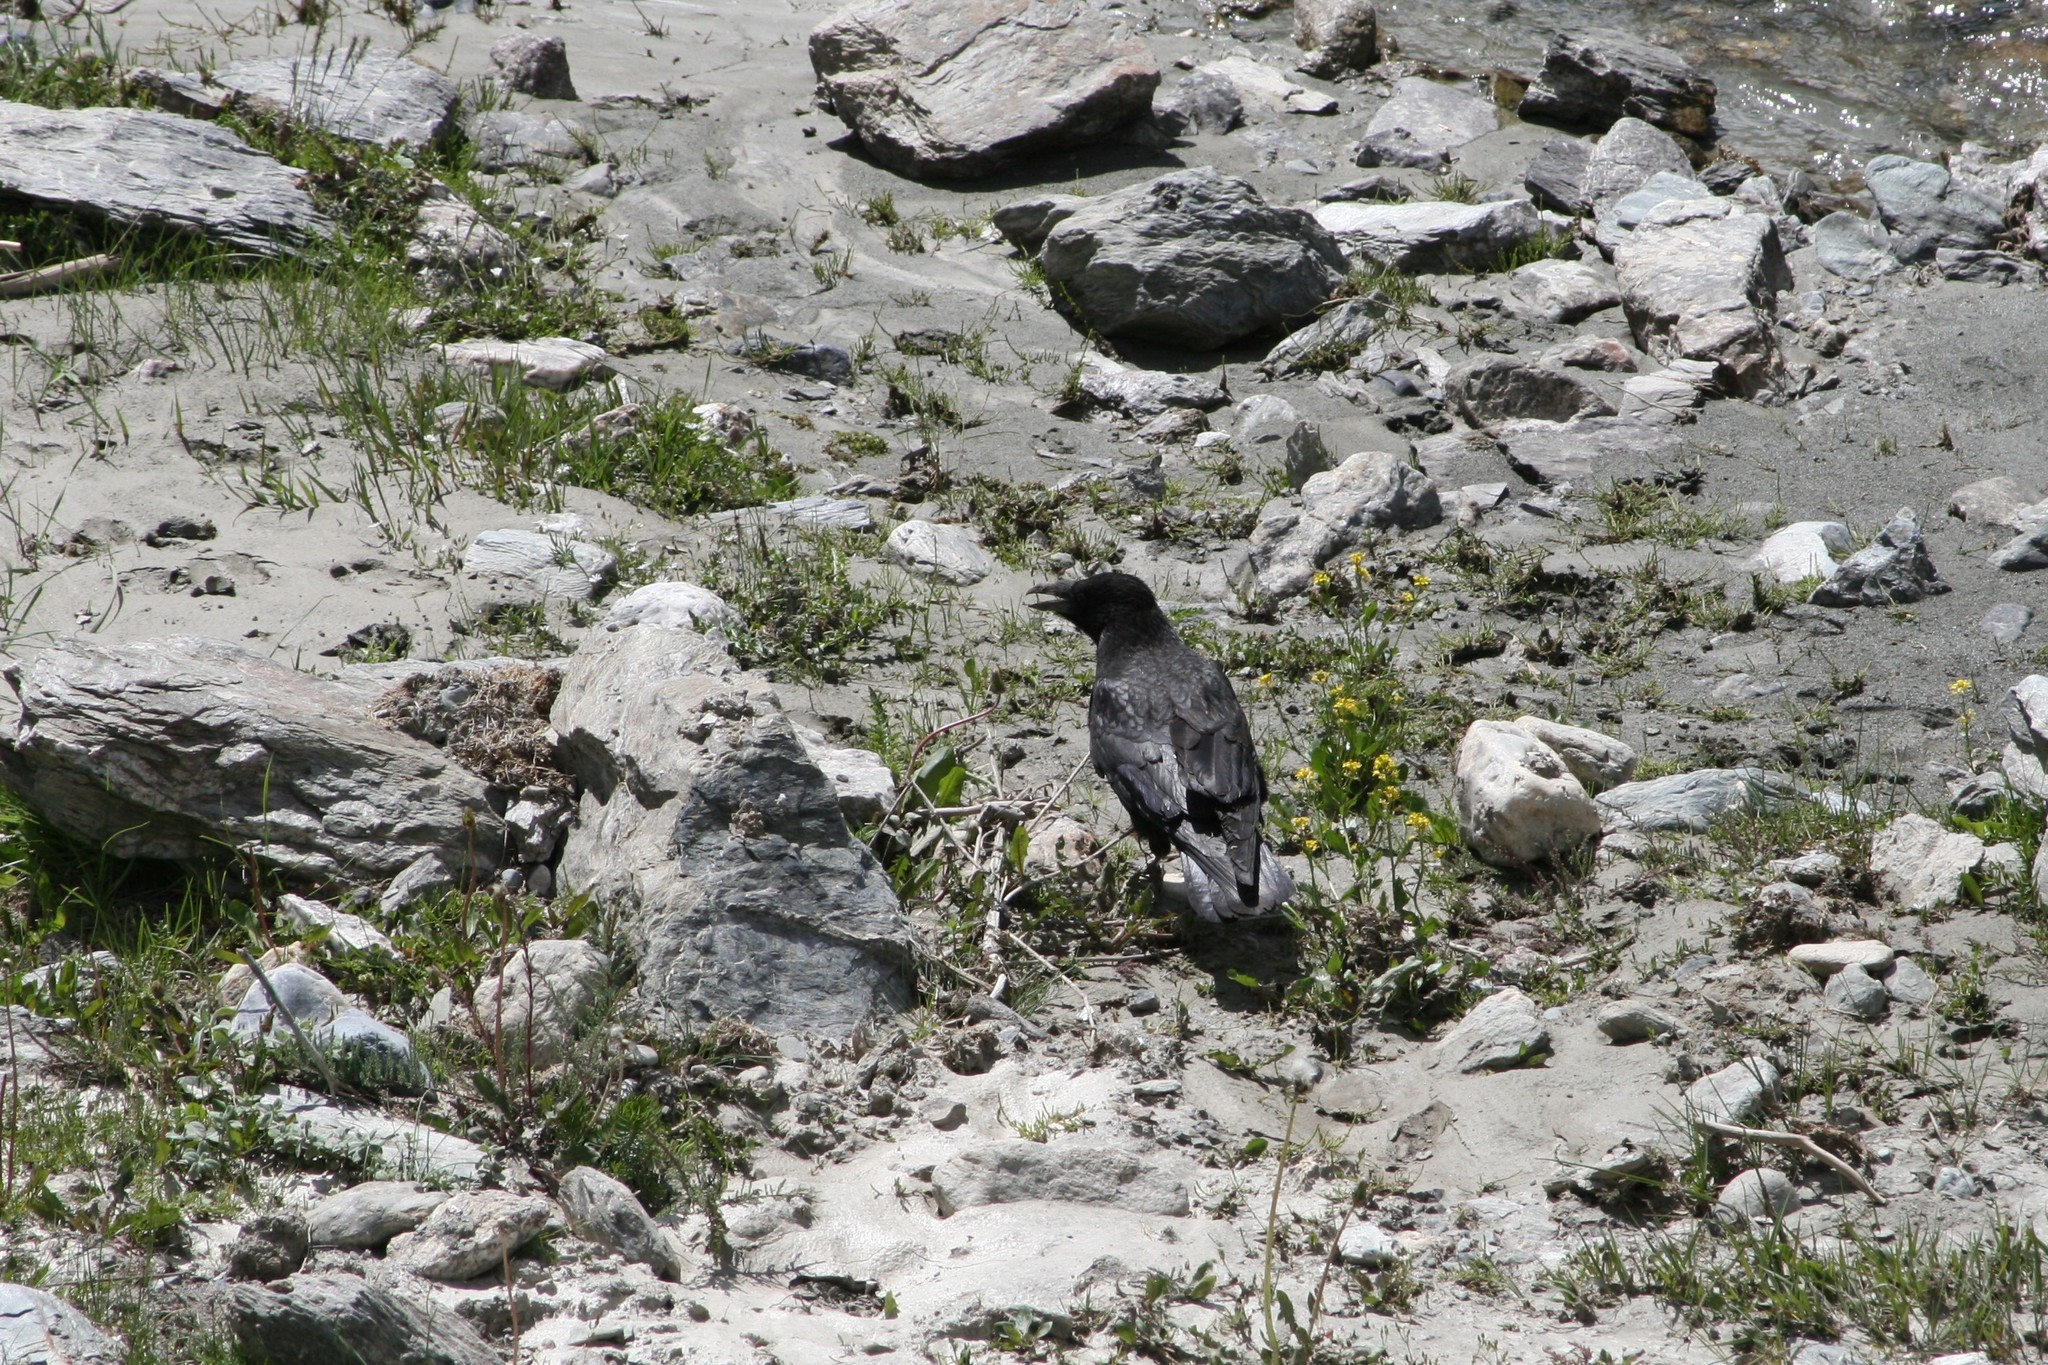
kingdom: Animalia
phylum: Chordata
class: Aves
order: Passeriformes
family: Corvidae
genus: Corvus
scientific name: Corvus corax
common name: Common raven
